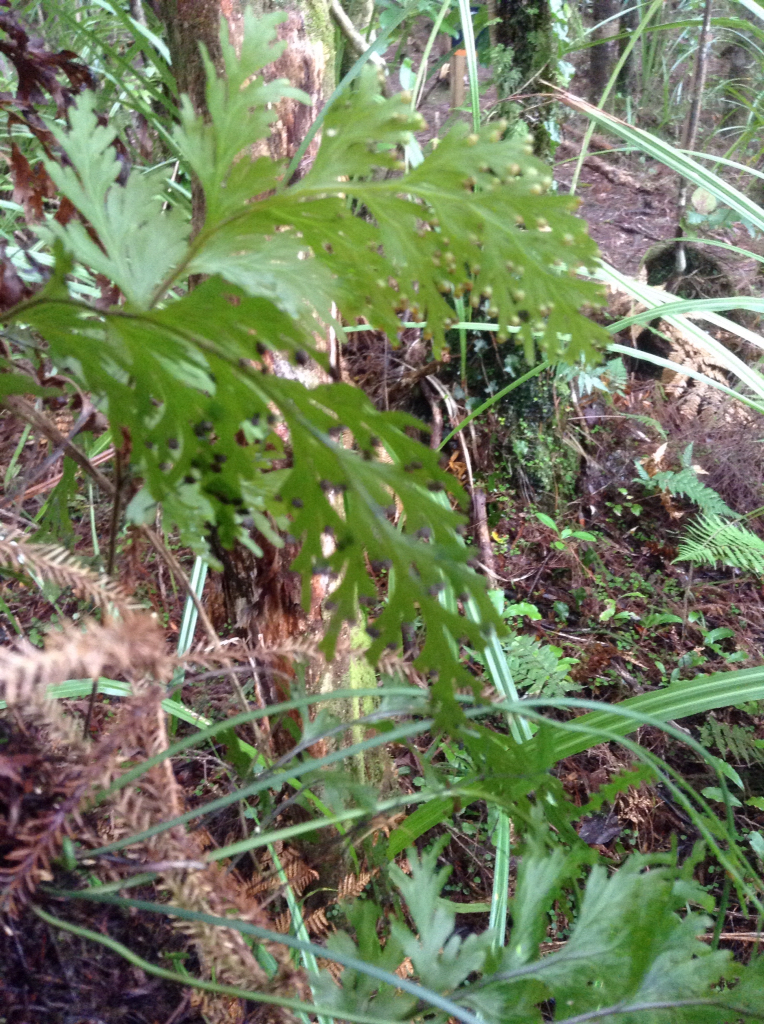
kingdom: Plantae
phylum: Tracheophyta
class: Polypodiopsida
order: Hymenophyllales
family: Hymenophyllaceae
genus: Hymenophyllum
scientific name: Hymenophyllum dilatatum
